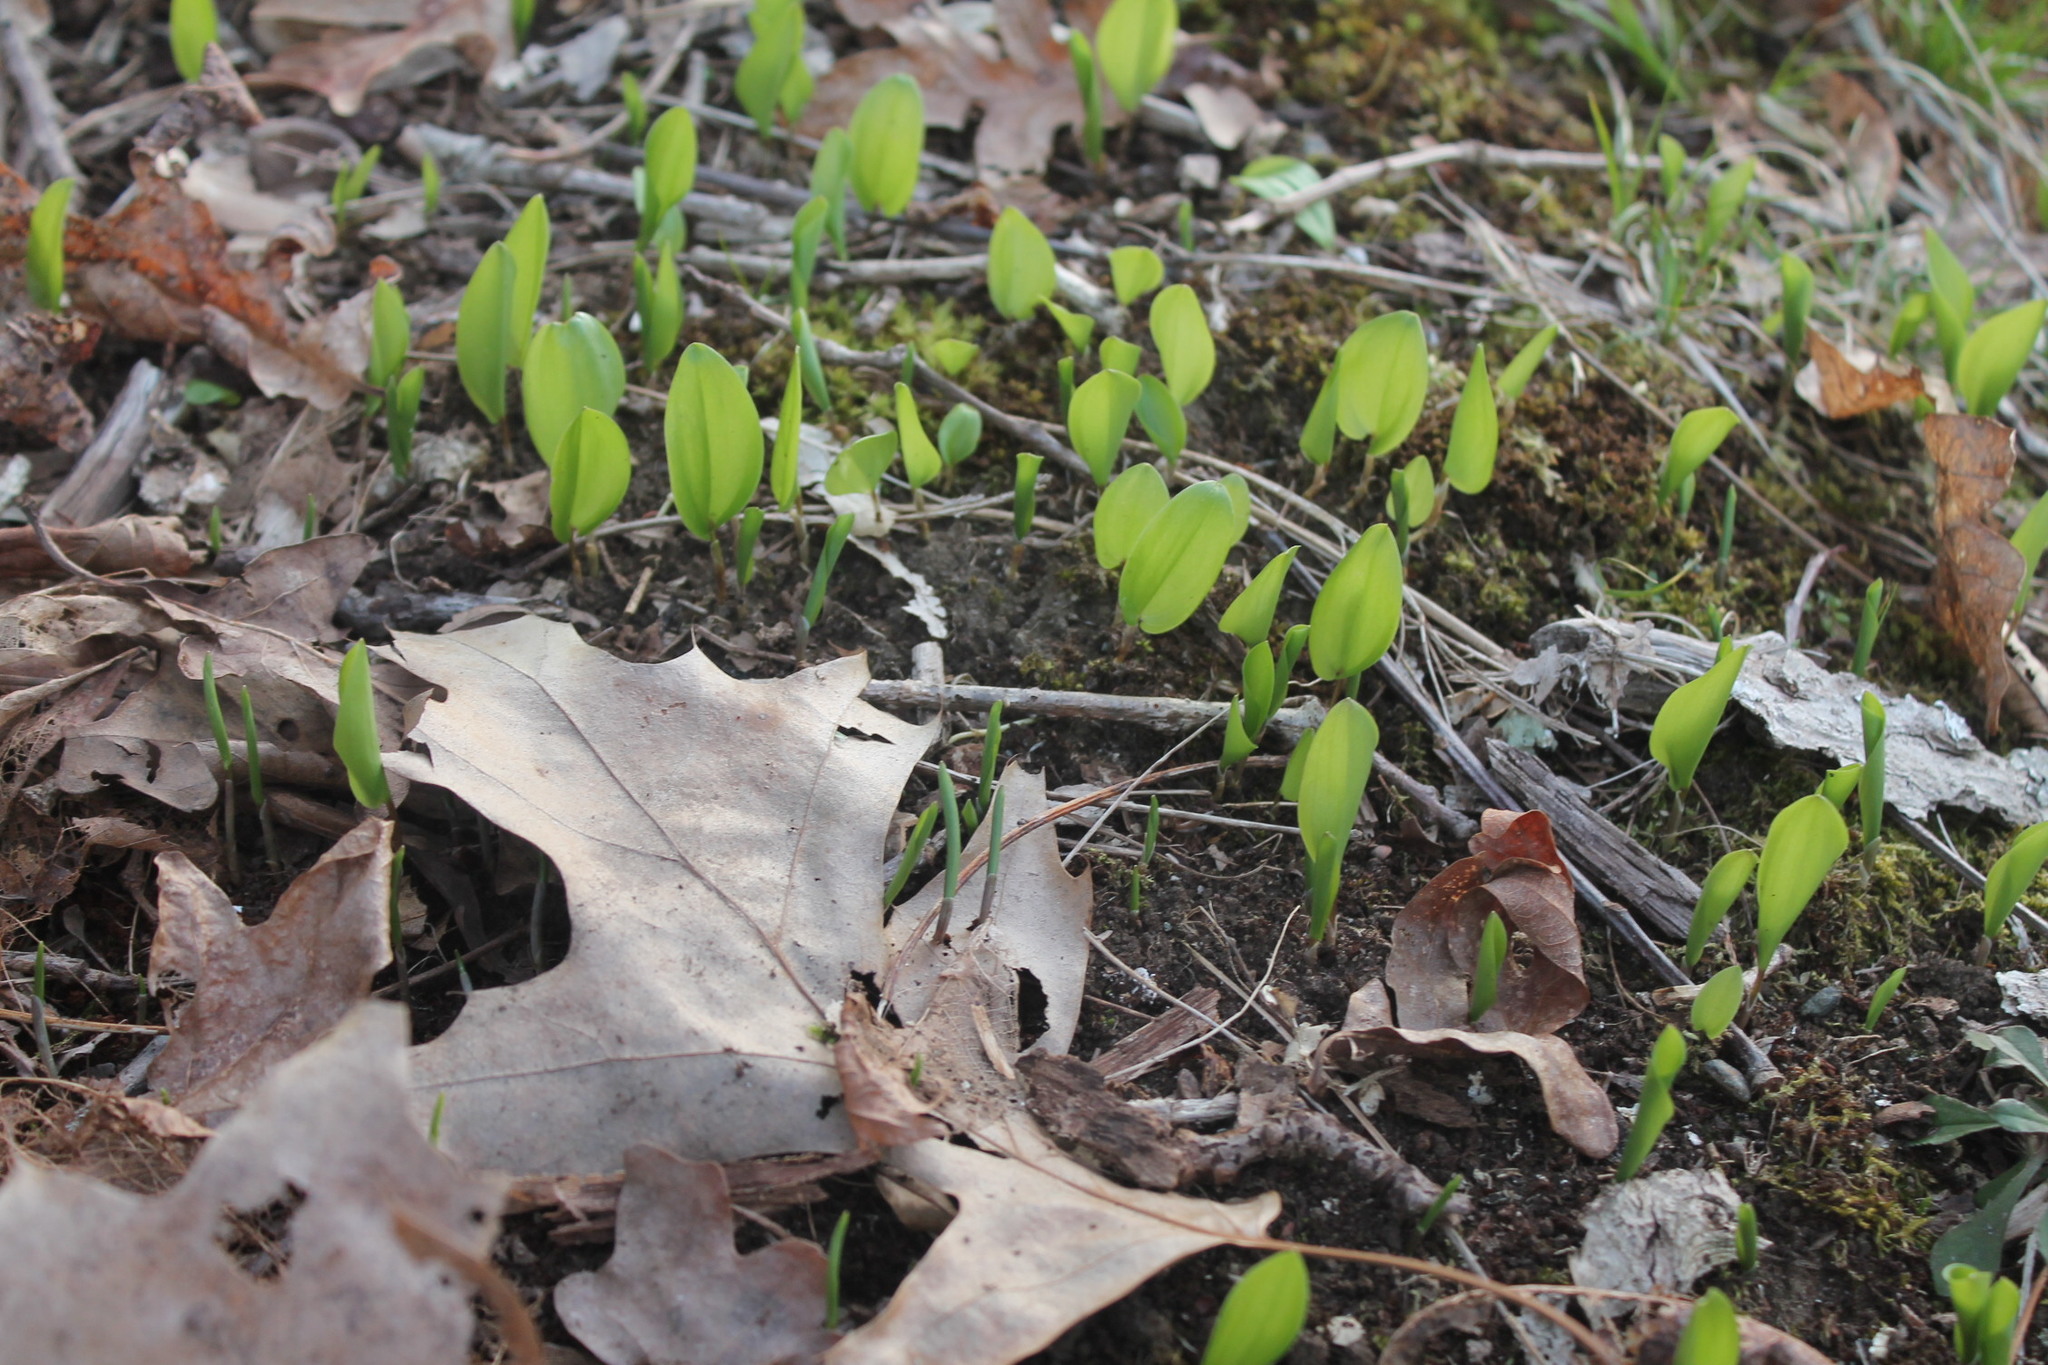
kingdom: Plantae
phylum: Tracheophyta
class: Liliopsida
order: Asparagales
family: Asparagaceae
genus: Maianthemum
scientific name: Maianthemum canadense
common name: False lily-of-the-valley
